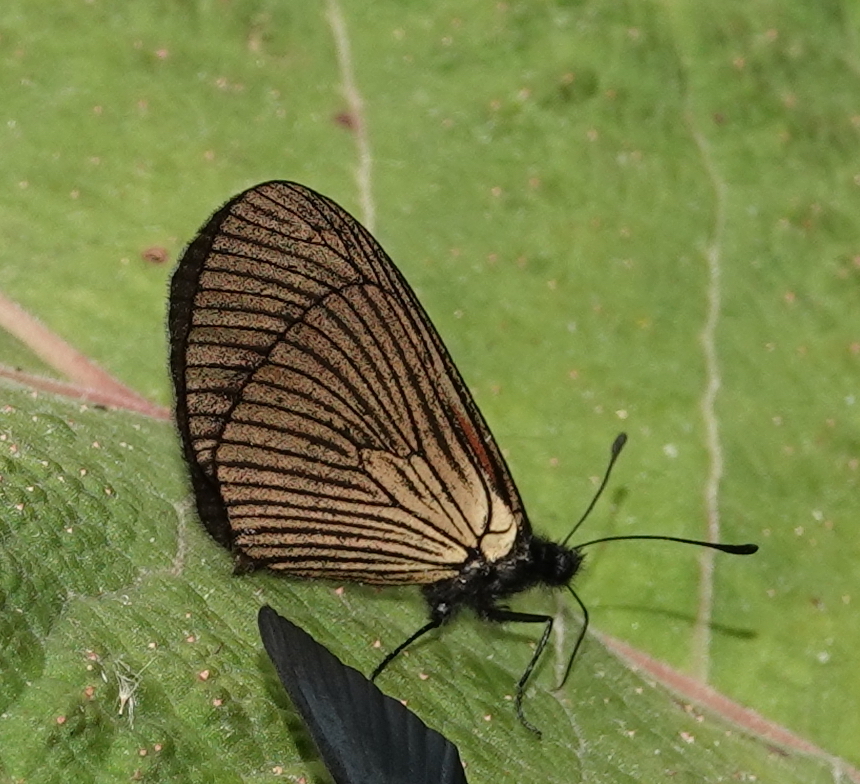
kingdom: Animalia
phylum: Arthropoda
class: Insecta
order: Lepidoptera
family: Nymphalidae
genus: Acraea
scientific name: Acraea Altinote ozomene
